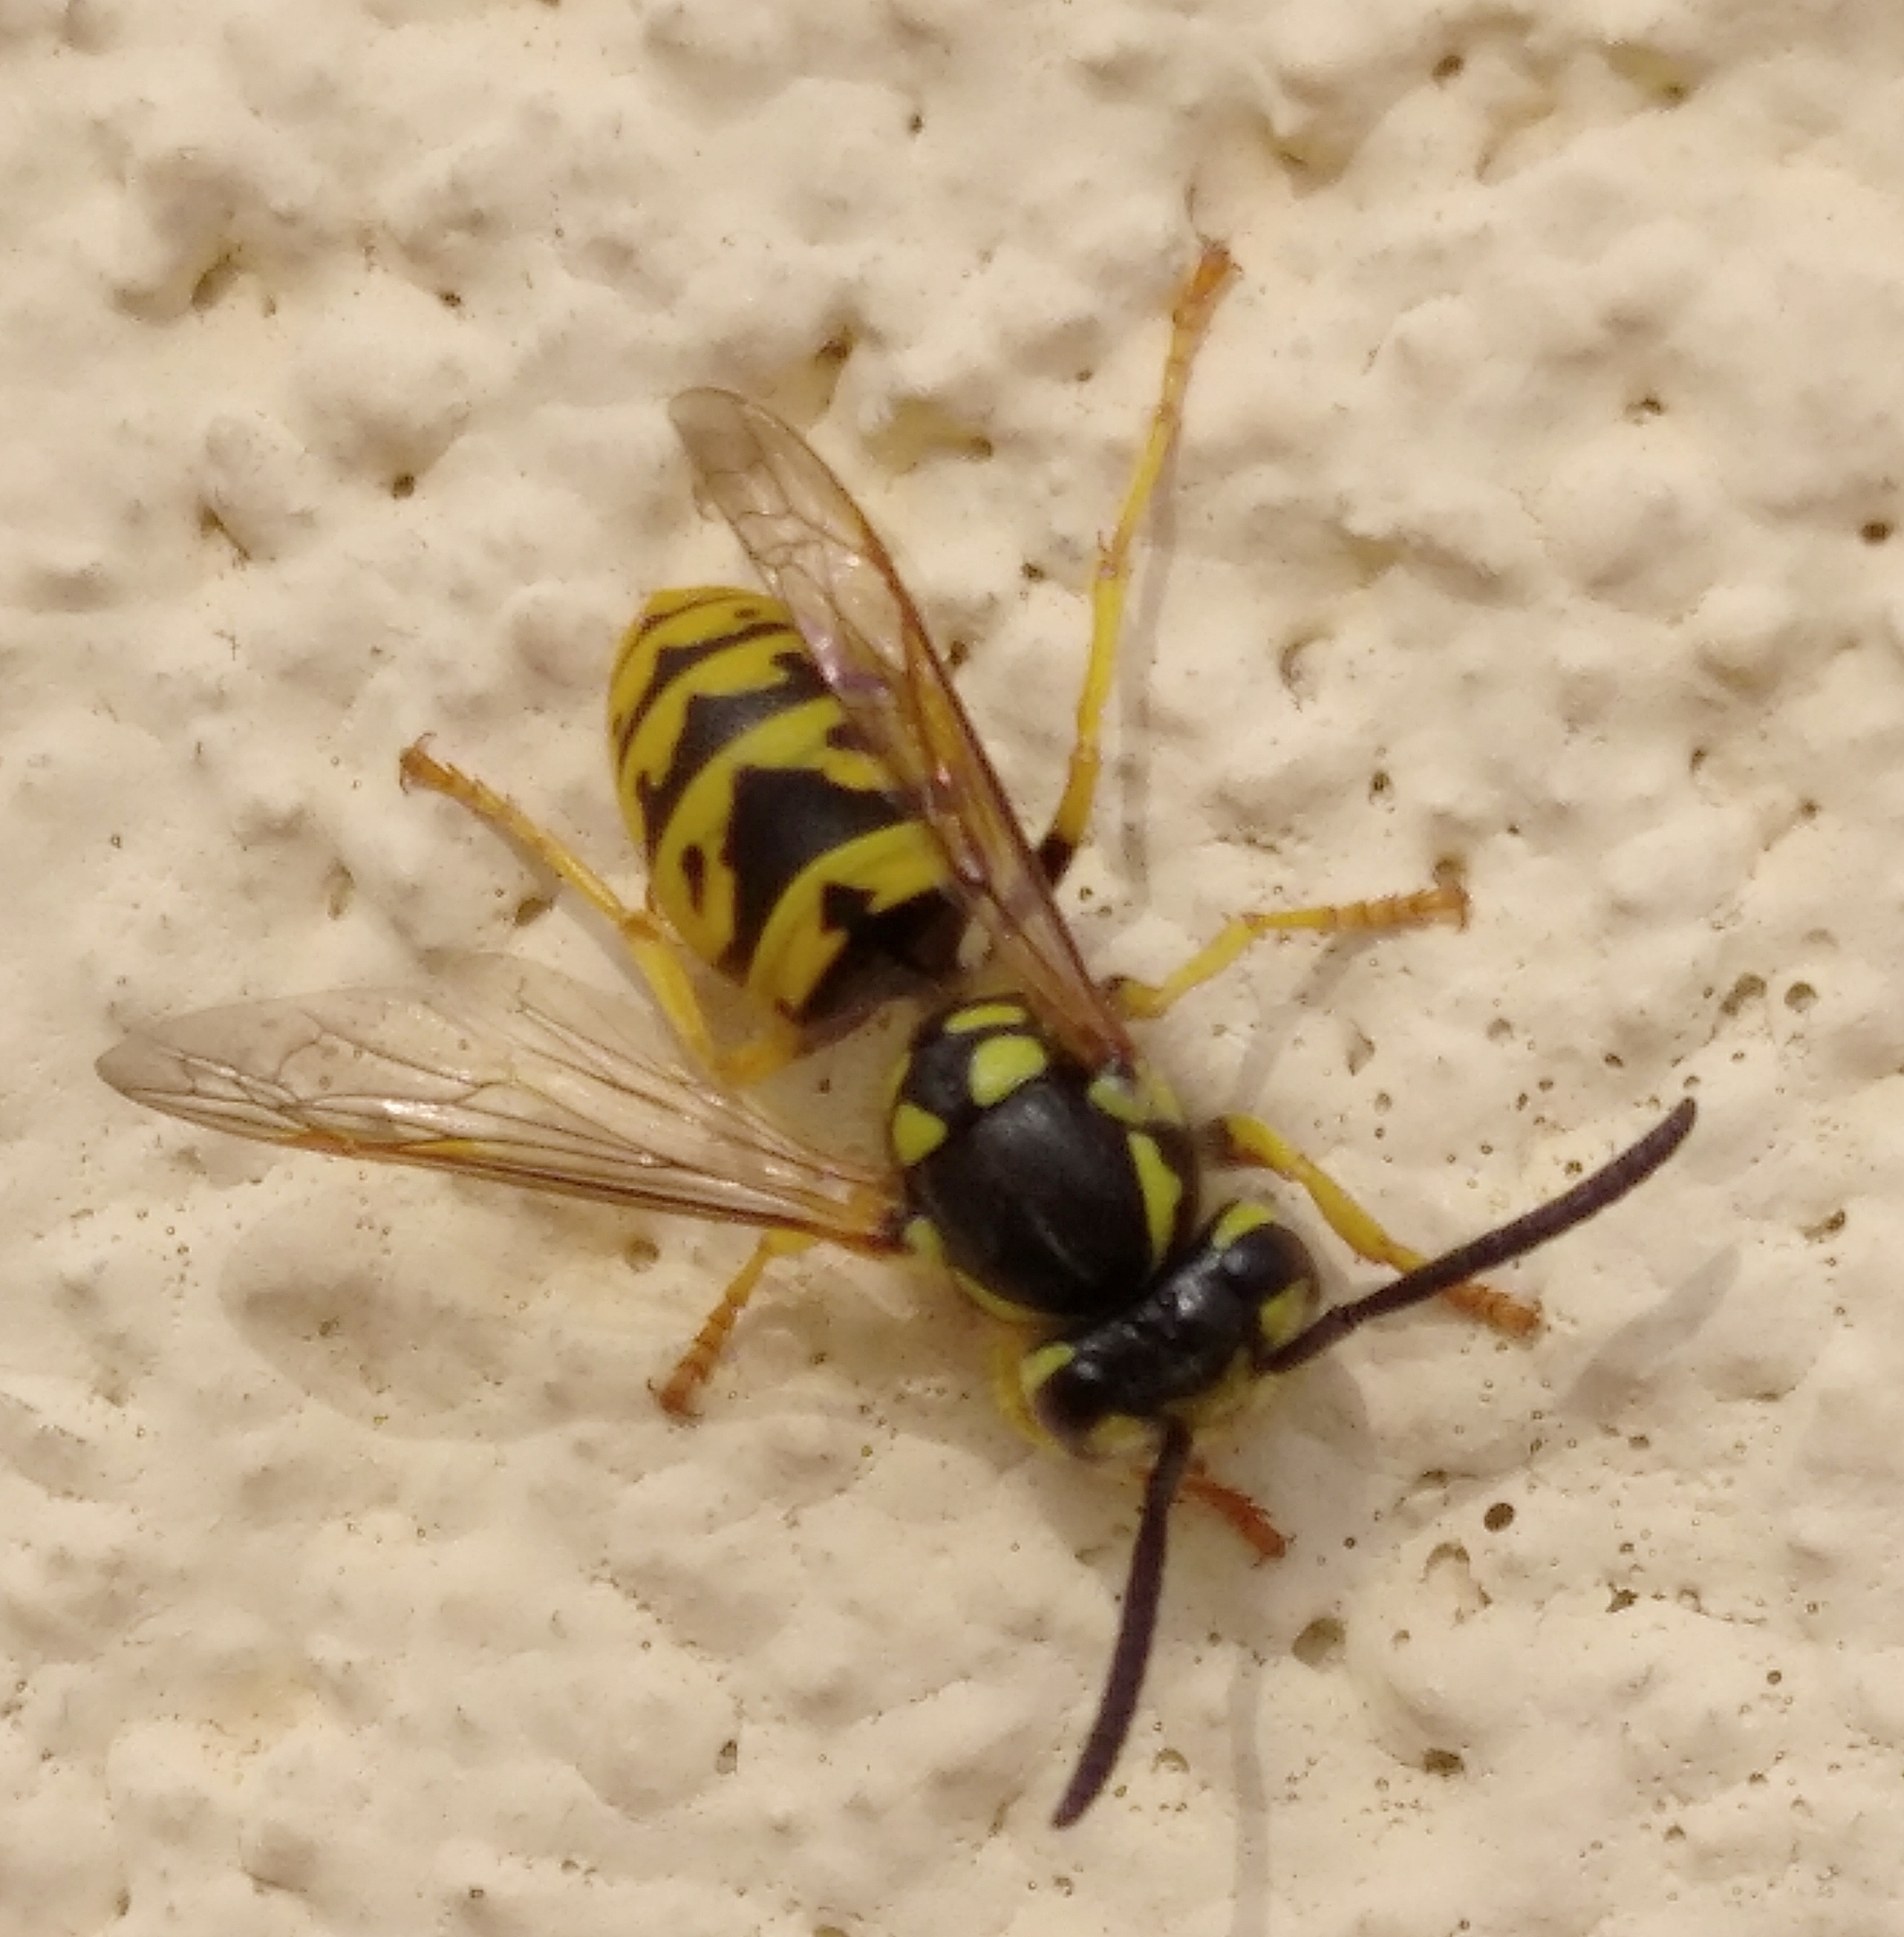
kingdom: Animalia
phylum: Arthropoda
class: Insecta
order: Hymenoptera
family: Vespidae
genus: Vespula
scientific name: Vespula germanica
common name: German wasp
